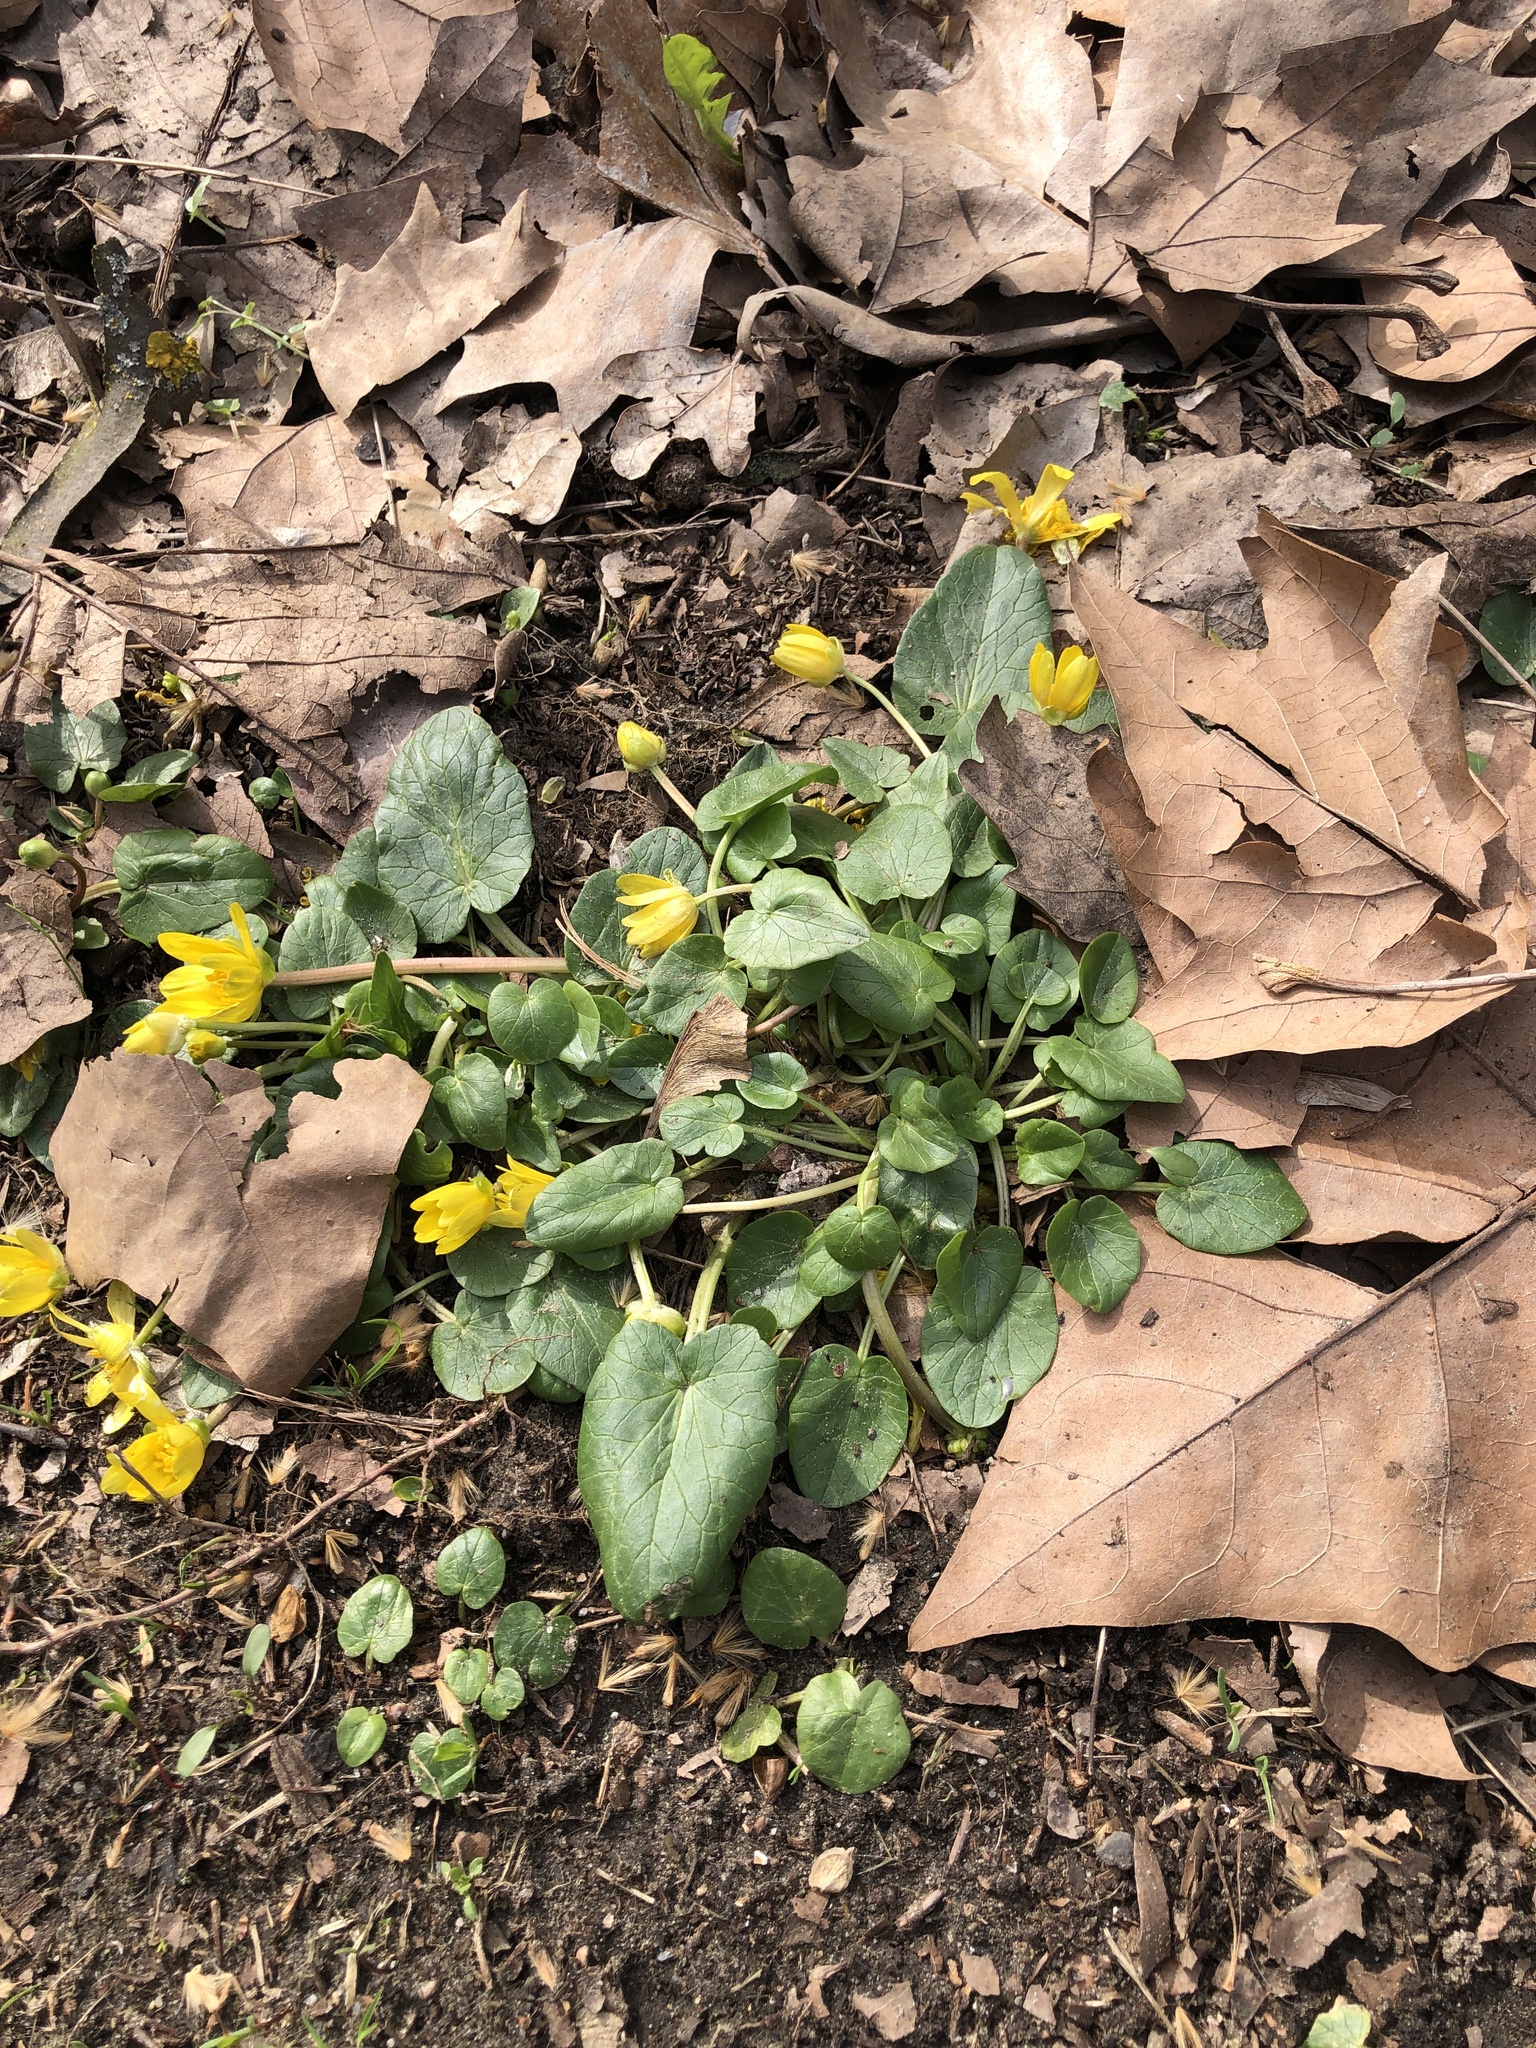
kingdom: Plantae
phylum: Tracheophyta
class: Magnoliopsida
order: Ranunculales
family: Ranunculaceae
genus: Ficaria
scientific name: Ficaria verna
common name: Lesser celandine
